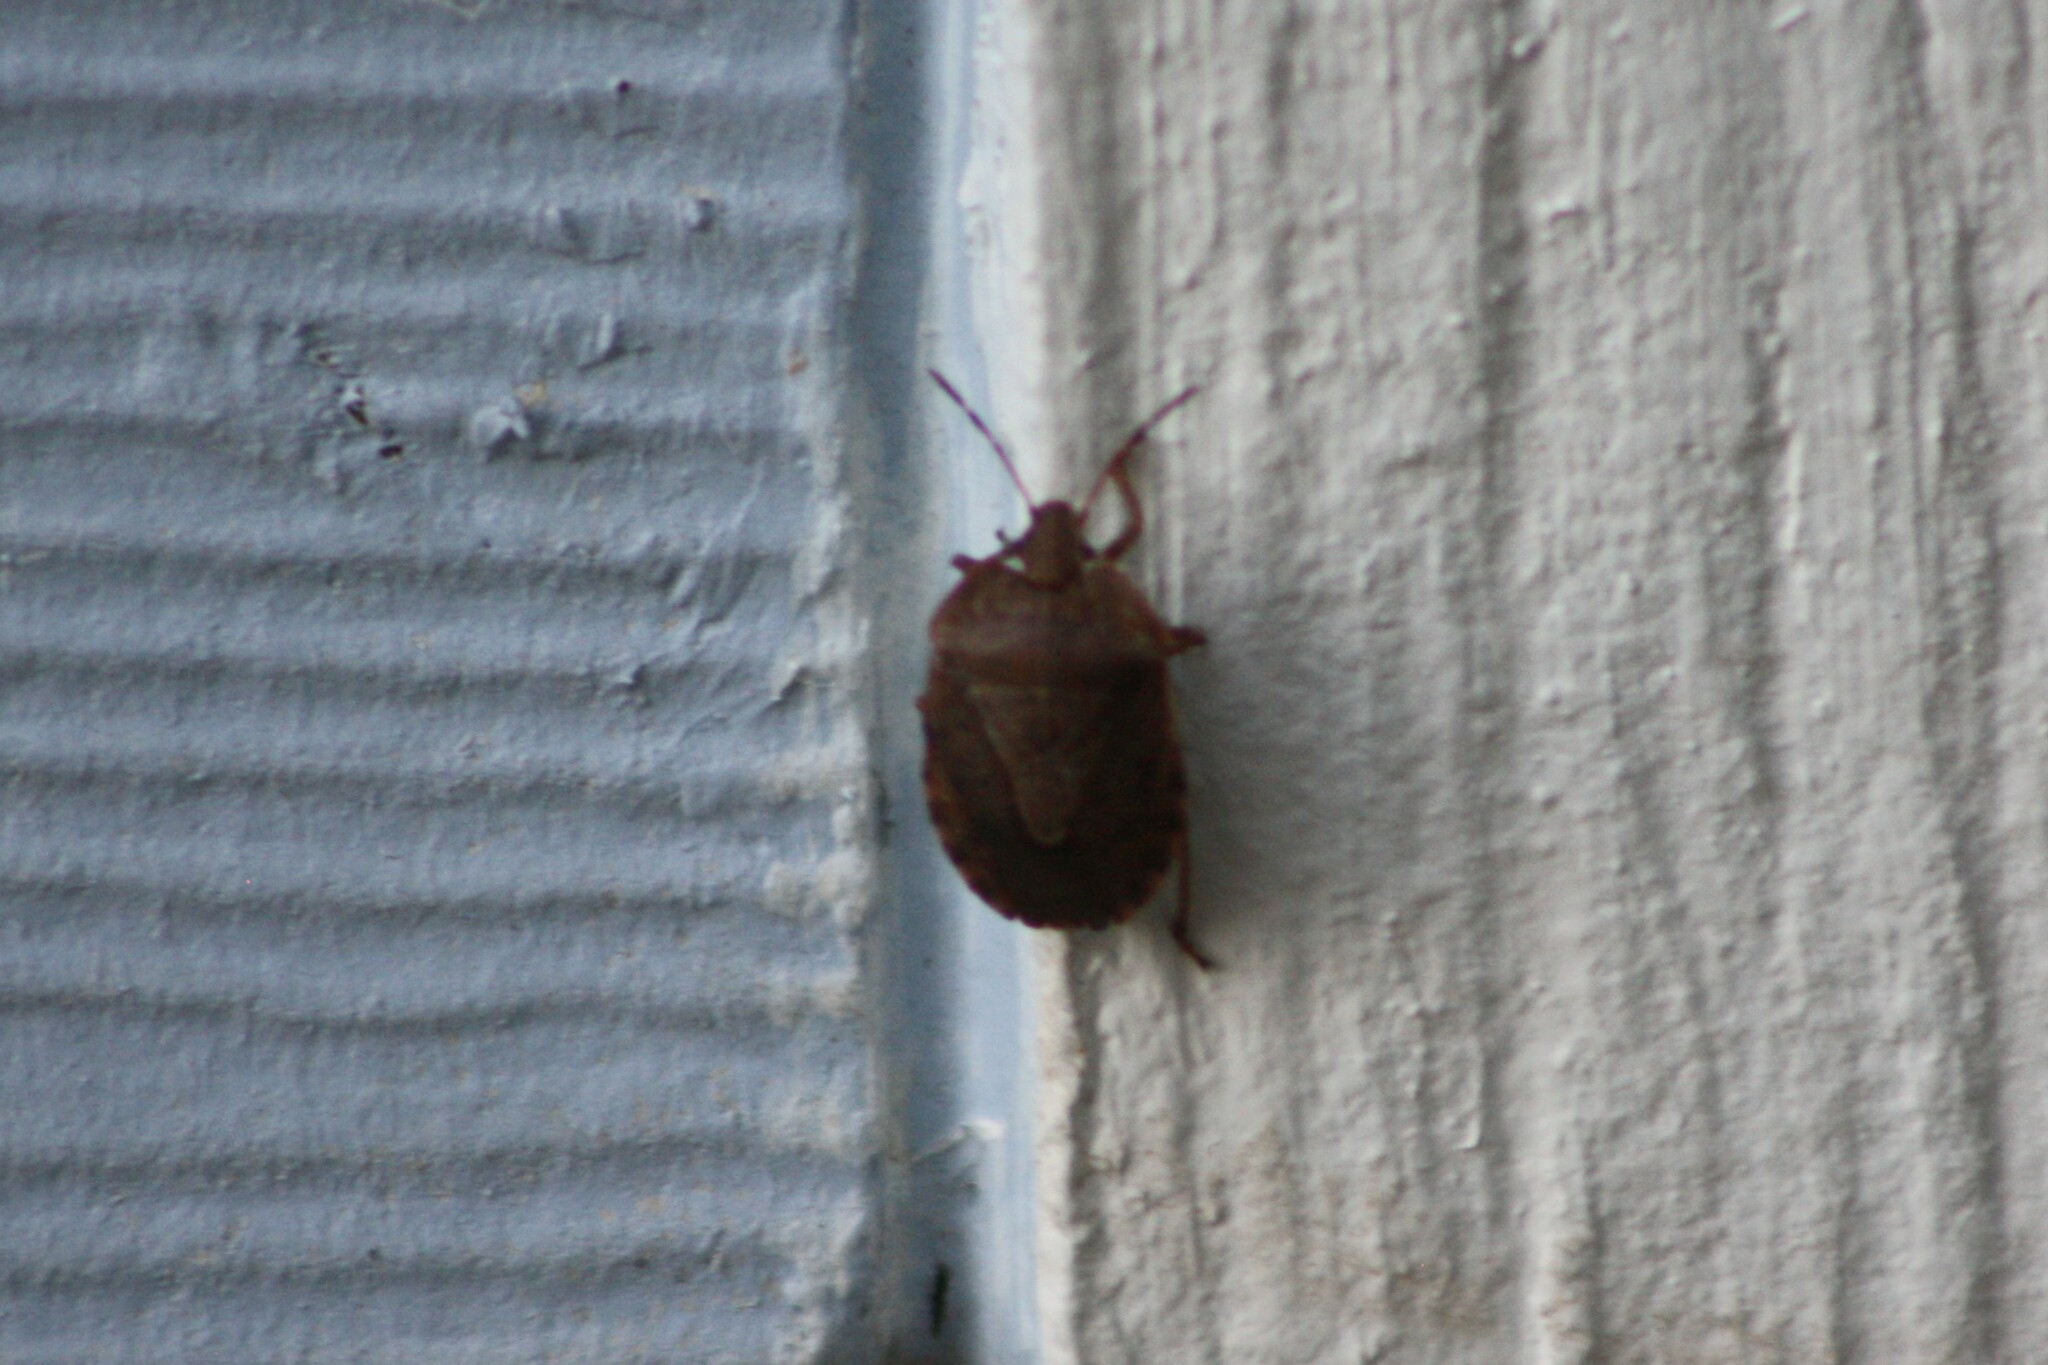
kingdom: Animalia
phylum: Arthropoda
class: Insecta
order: Hemiptera
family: Pentatomidae
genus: Menecles
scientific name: Menecles insertus
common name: Elf shoe stink bug
